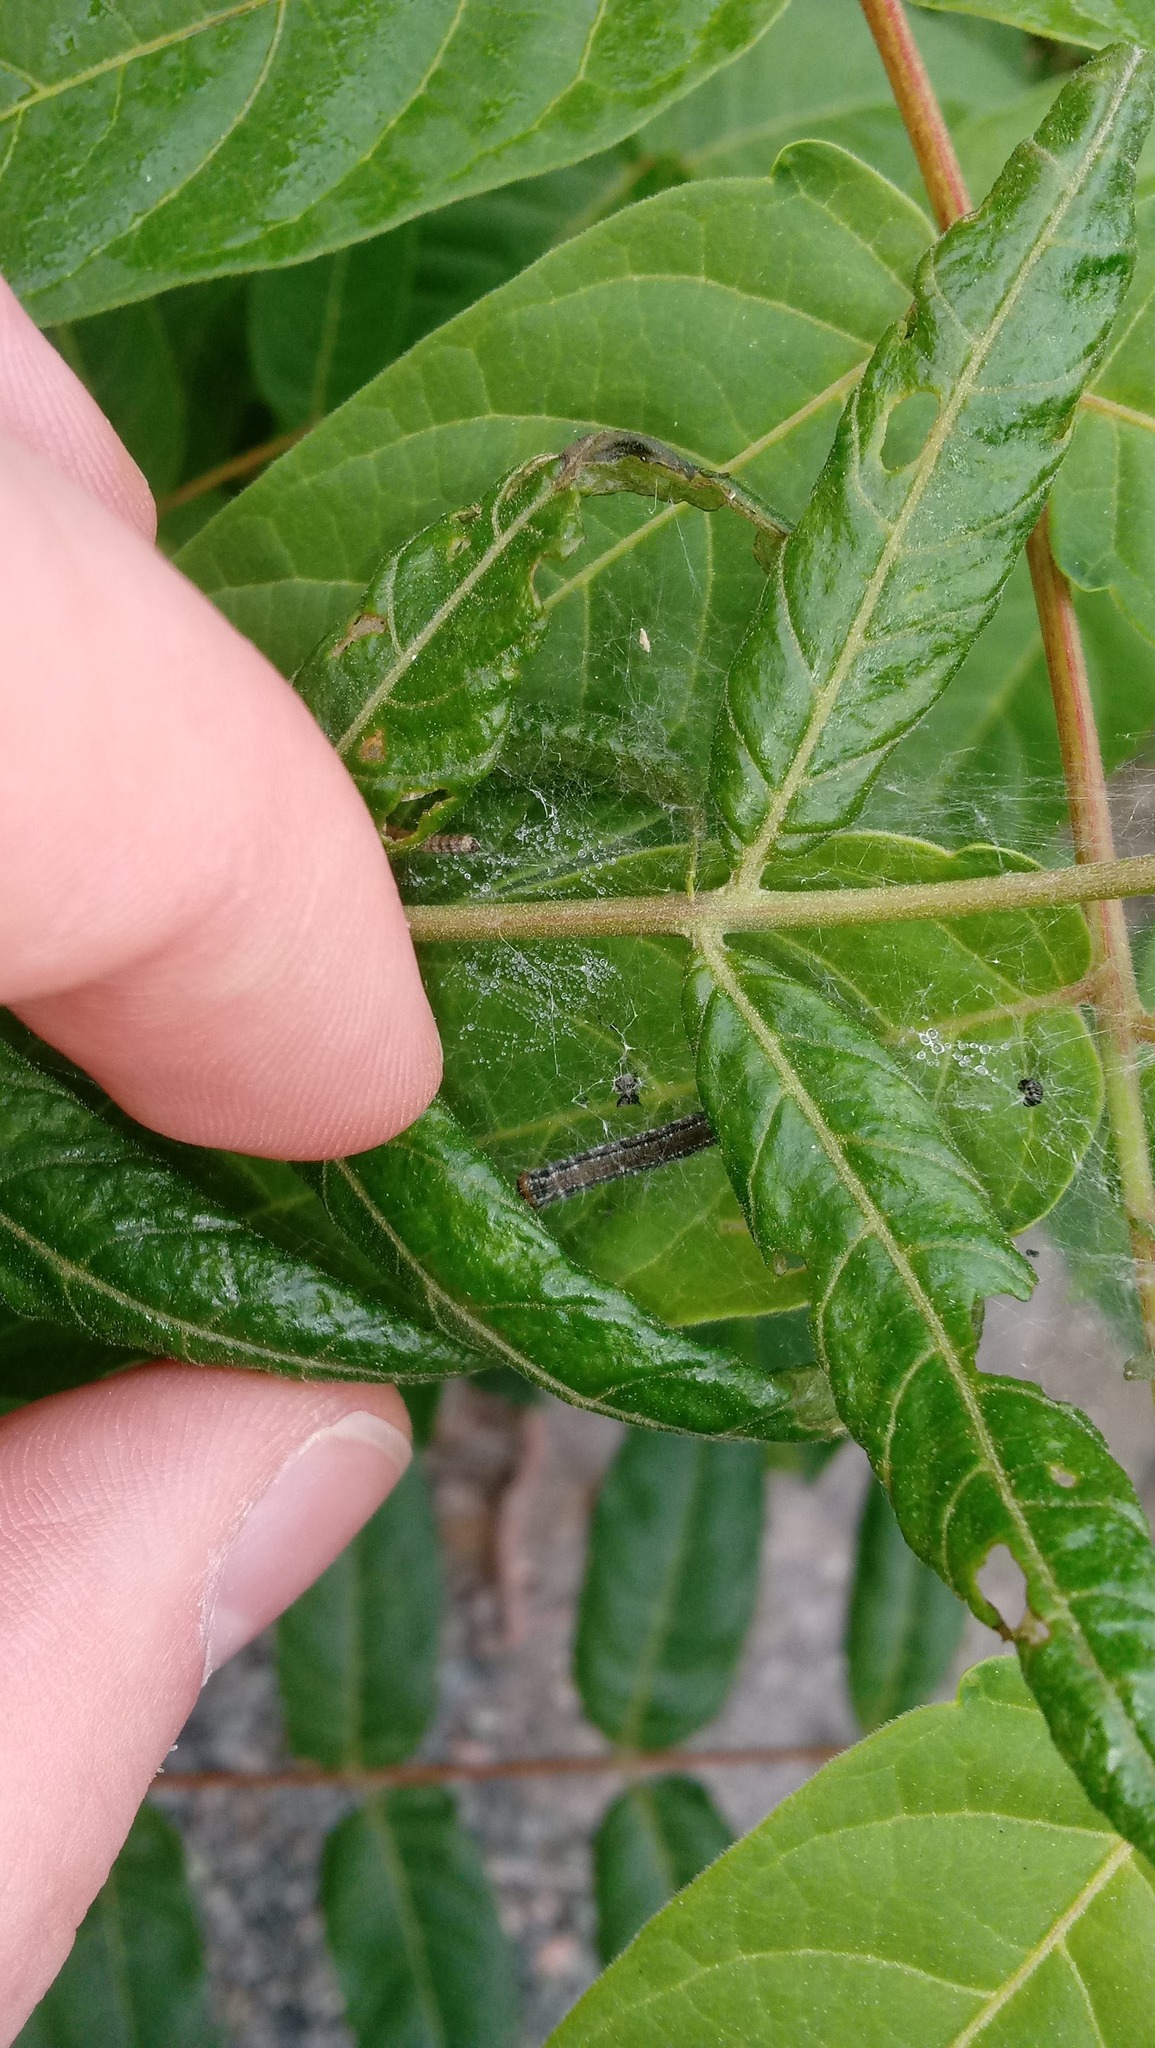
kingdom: Animalia
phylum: Arthropoda
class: Insecta
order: Lepidoptera
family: Attevidae
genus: Atteva
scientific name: Atteva punctella
